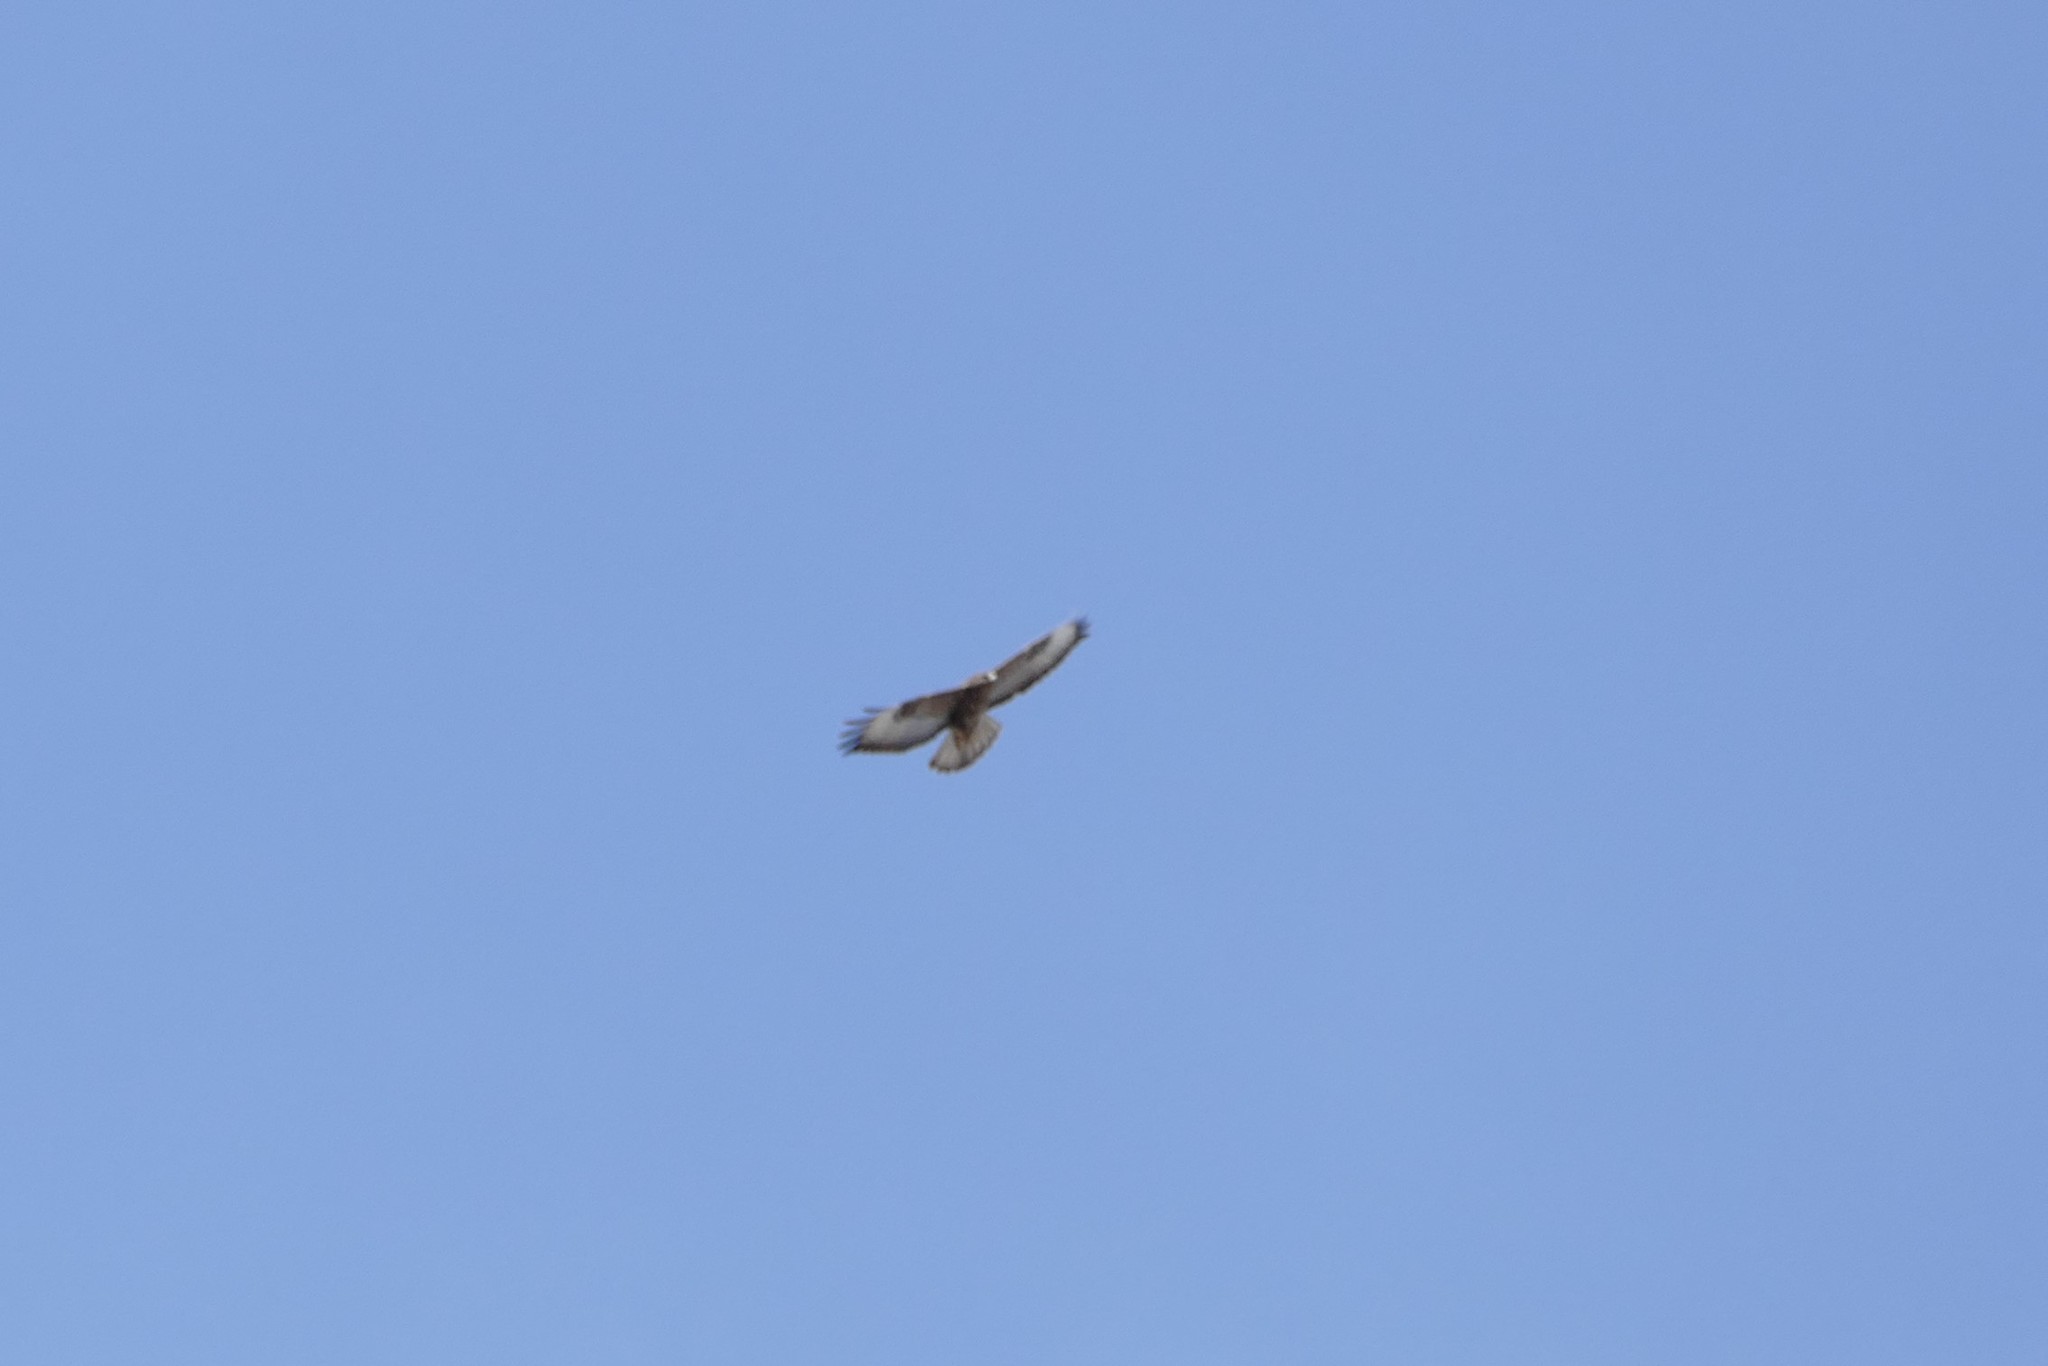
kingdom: Animalia
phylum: Chordata
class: Aves
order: Accipitriformes
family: Accipitridae
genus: Buteo
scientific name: Buteo buteo
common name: Common buzzard
